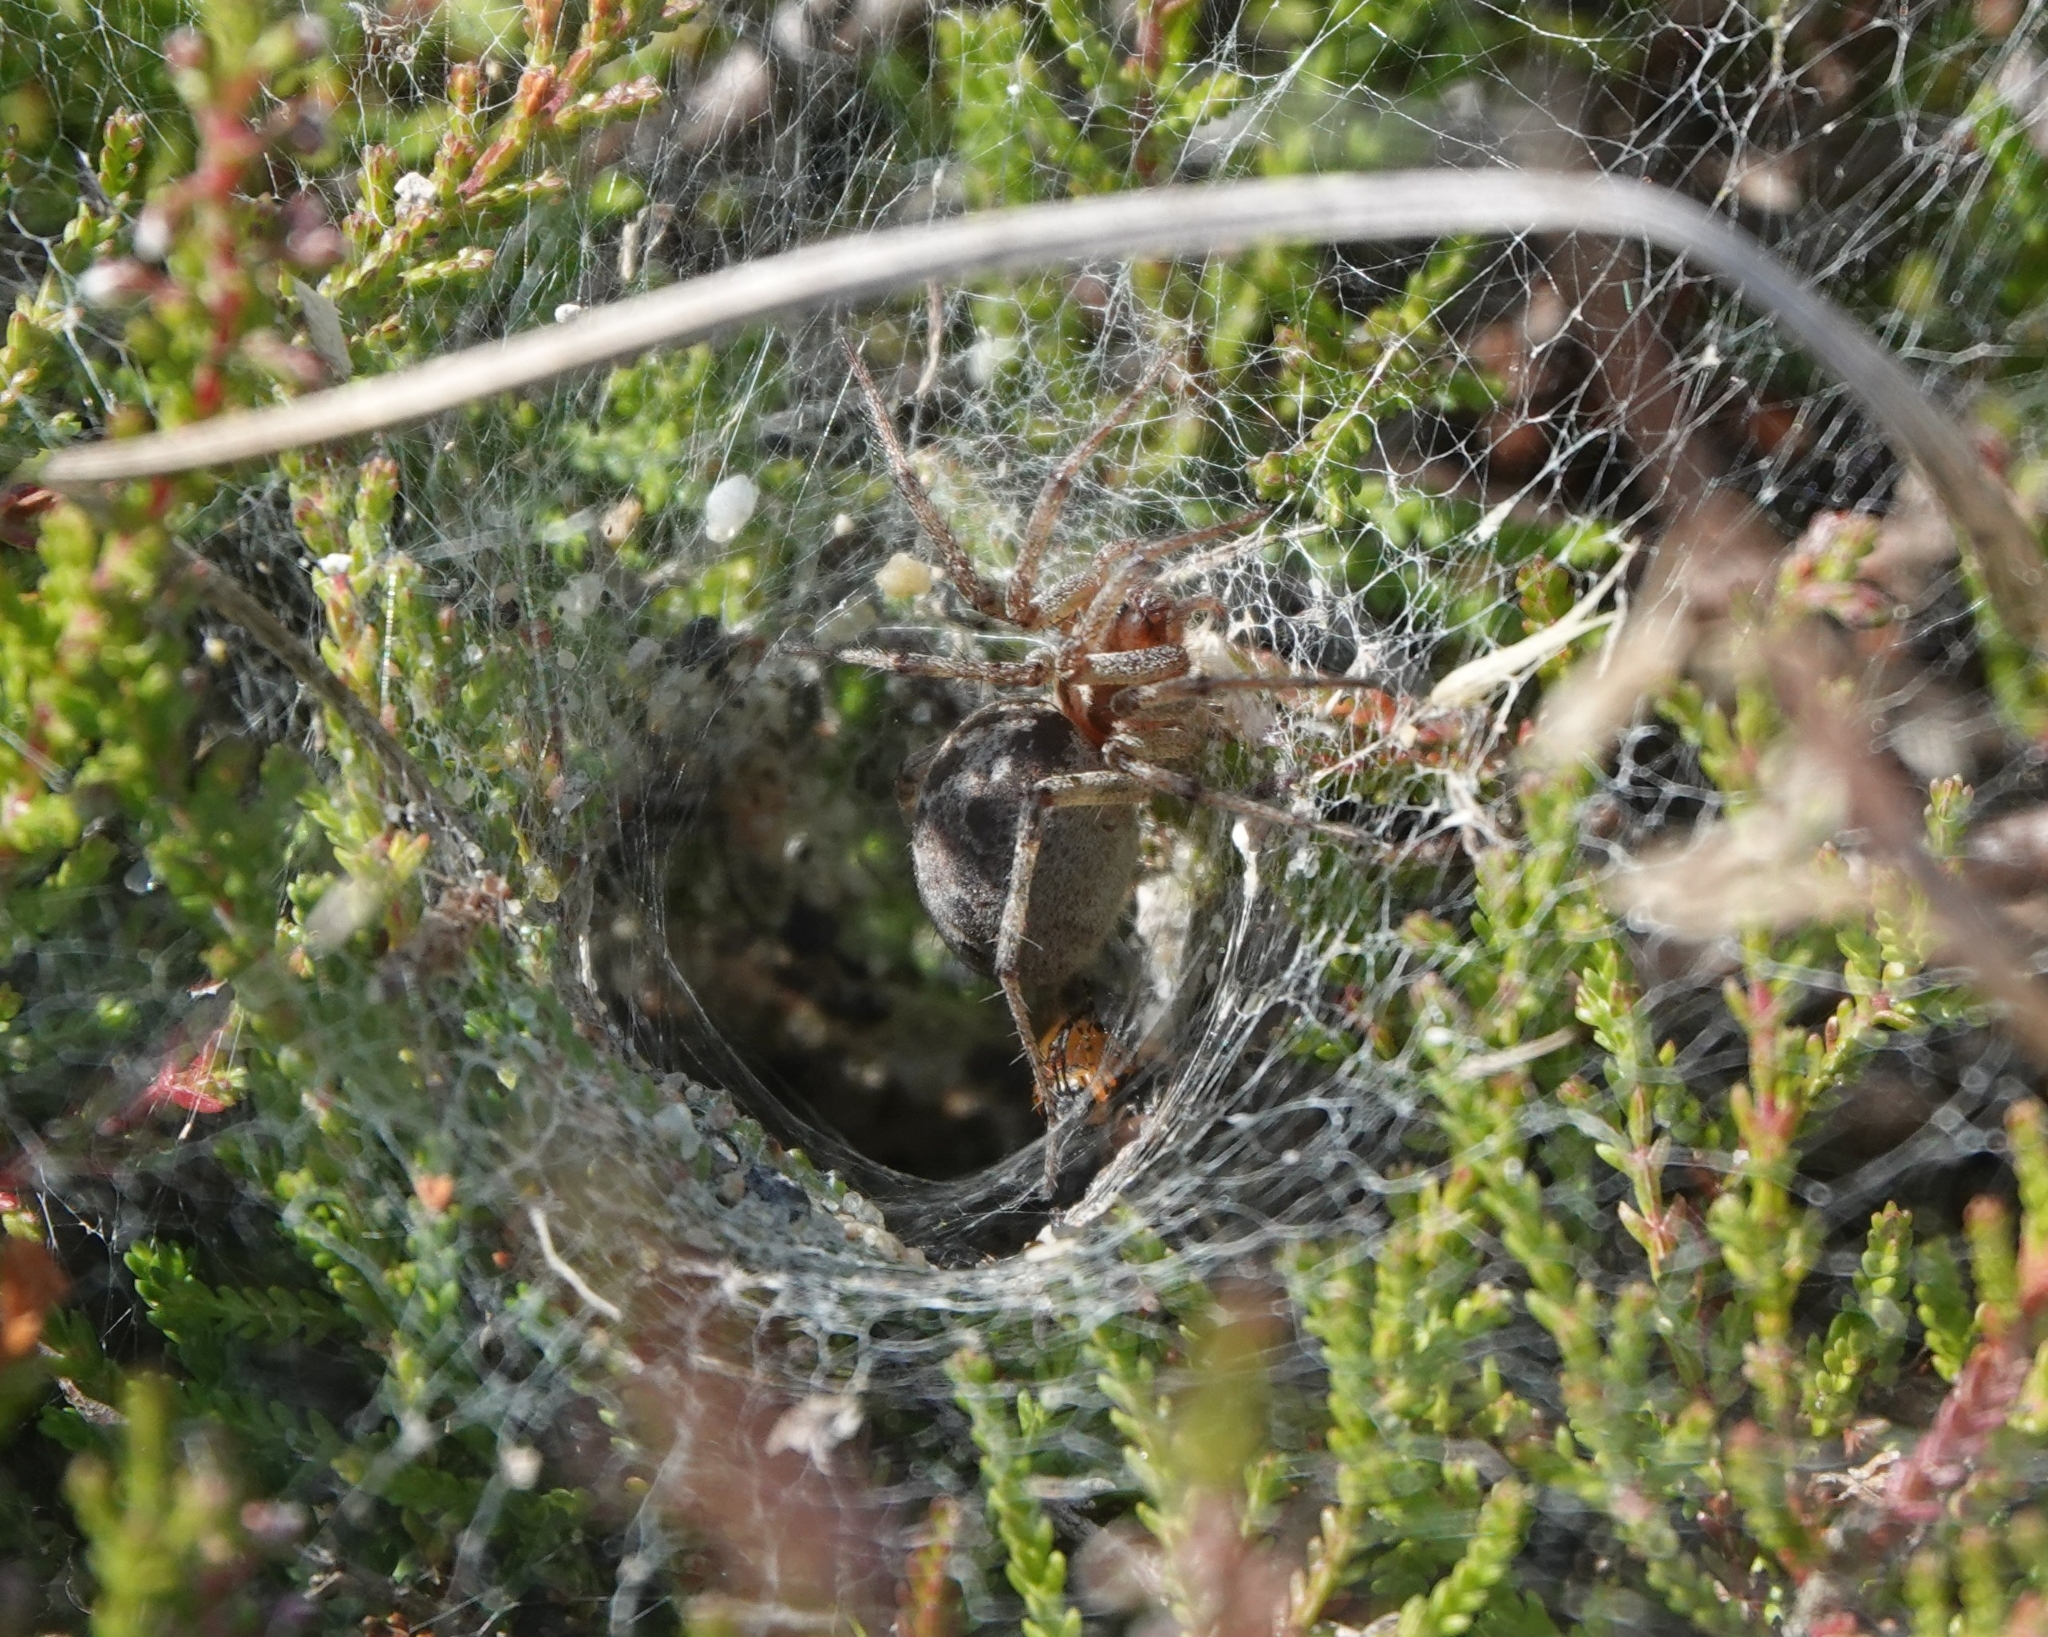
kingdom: Animalia
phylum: Arthropoda
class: Arachnida
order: Araneae
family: Agelenidae
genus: Agelena
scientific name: Agelena labyrinthica
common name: Labyrinth spider
